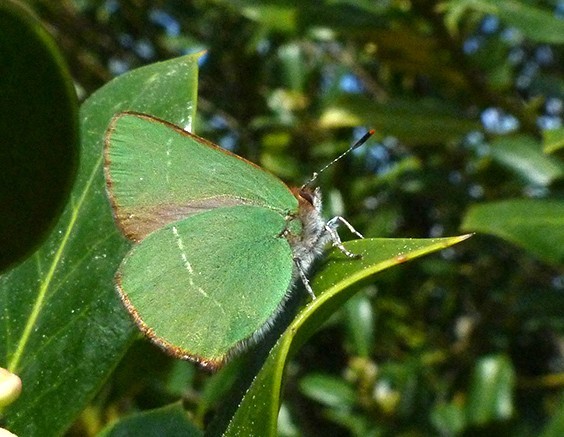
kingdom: Animalia
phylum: Arthropoda
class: Insecta
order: Lepidoptera
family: Lycaenidae
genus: Callophrys
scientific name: Callophrys avis
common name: Chapman's green hairstreak
